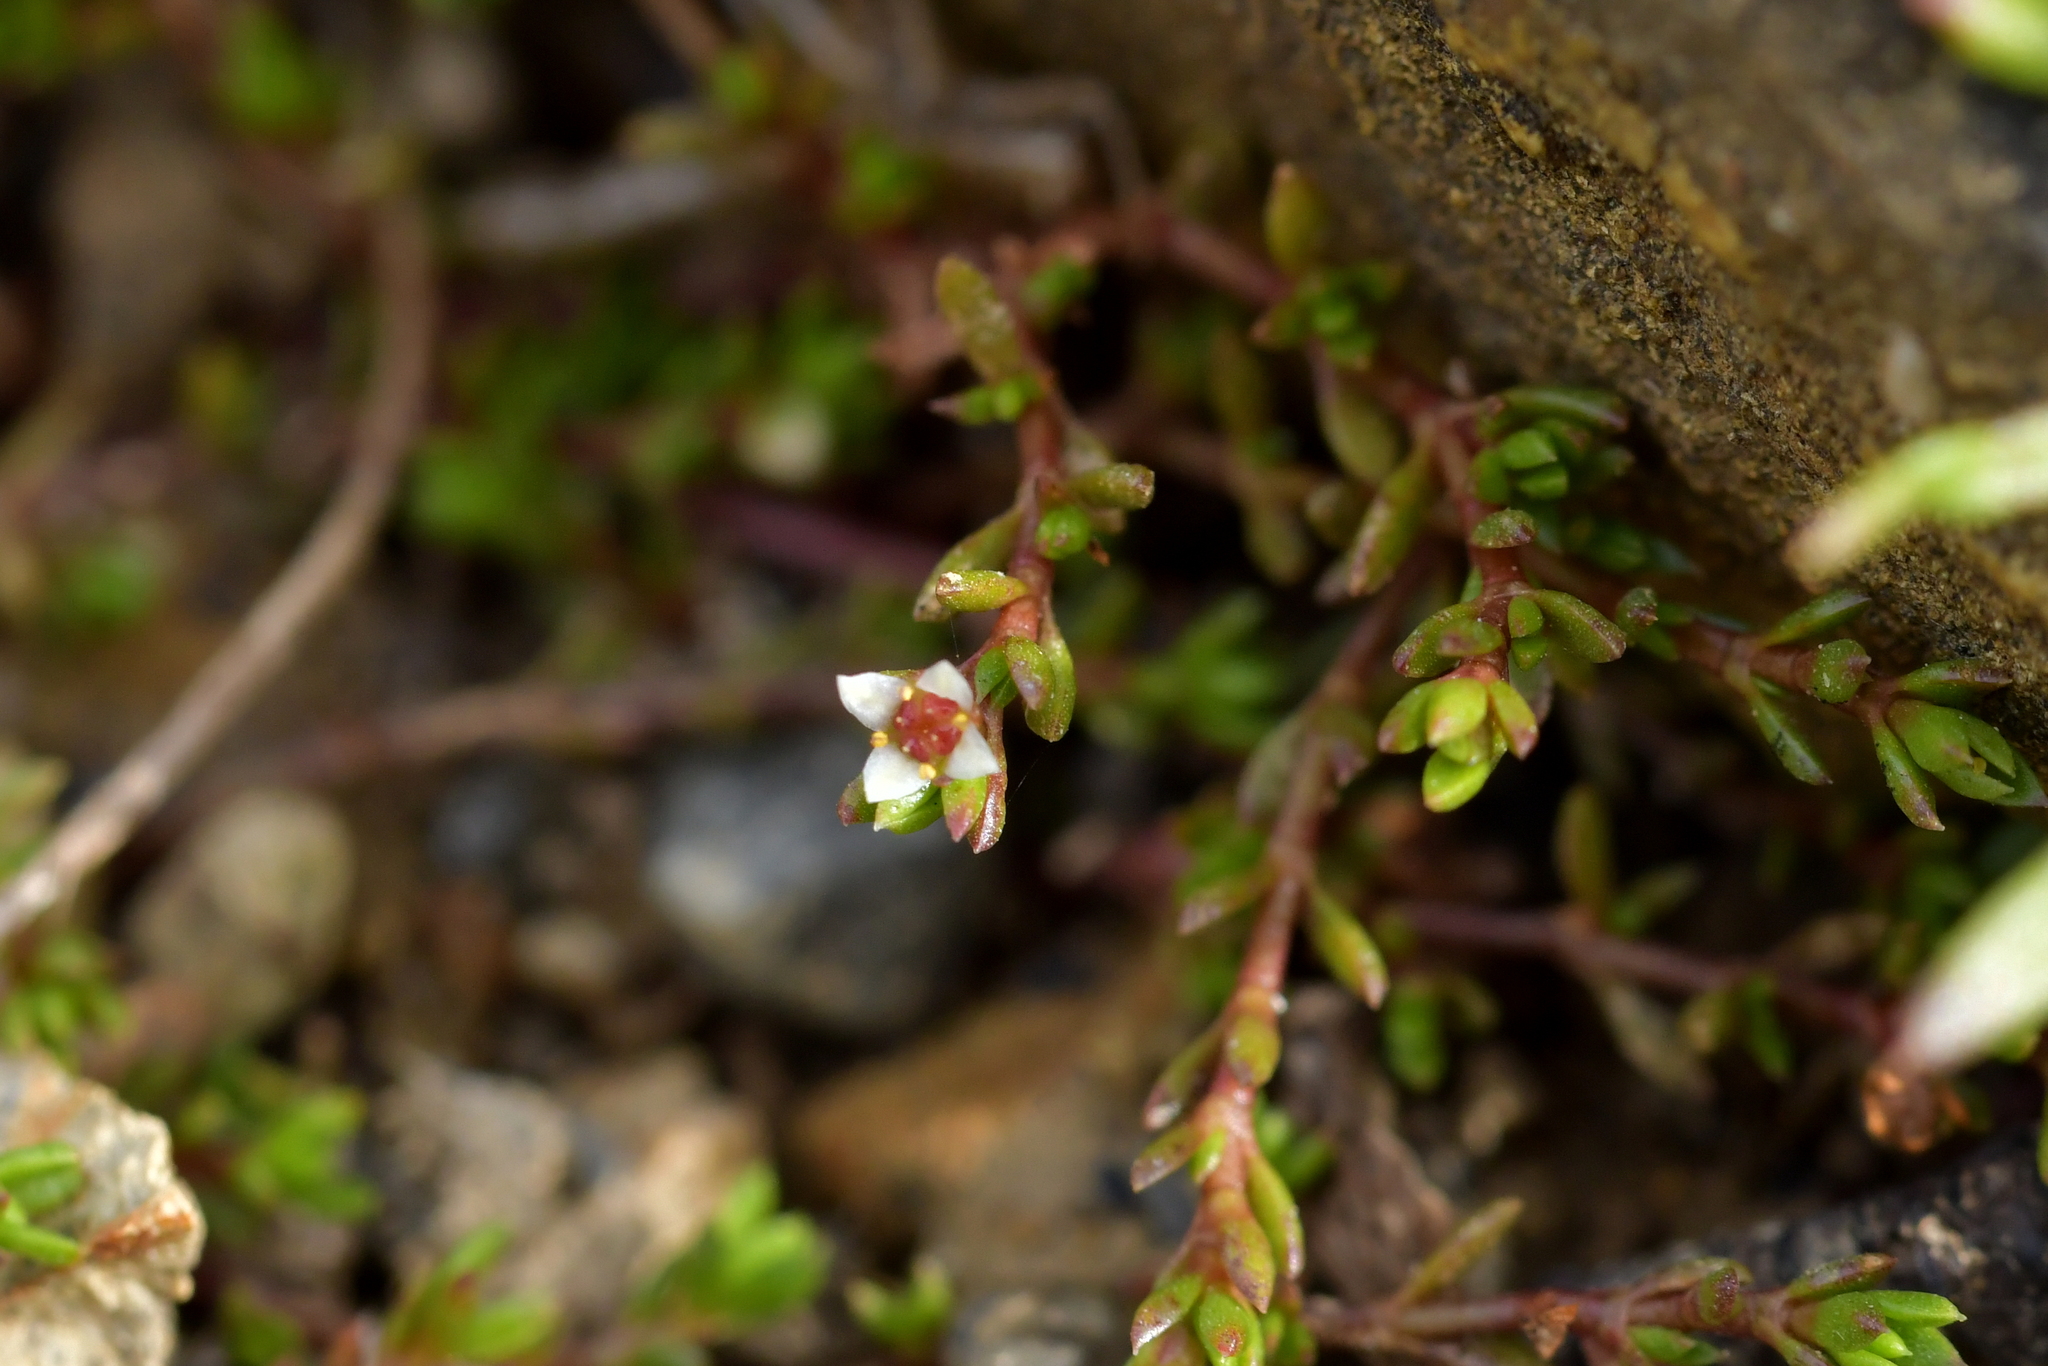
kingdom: Plantae
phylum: Tracheophyta
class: Magnoliopsida
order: Saxifragales
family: Crassulaceae
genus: Crassula
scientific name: Crassula sinclairii
